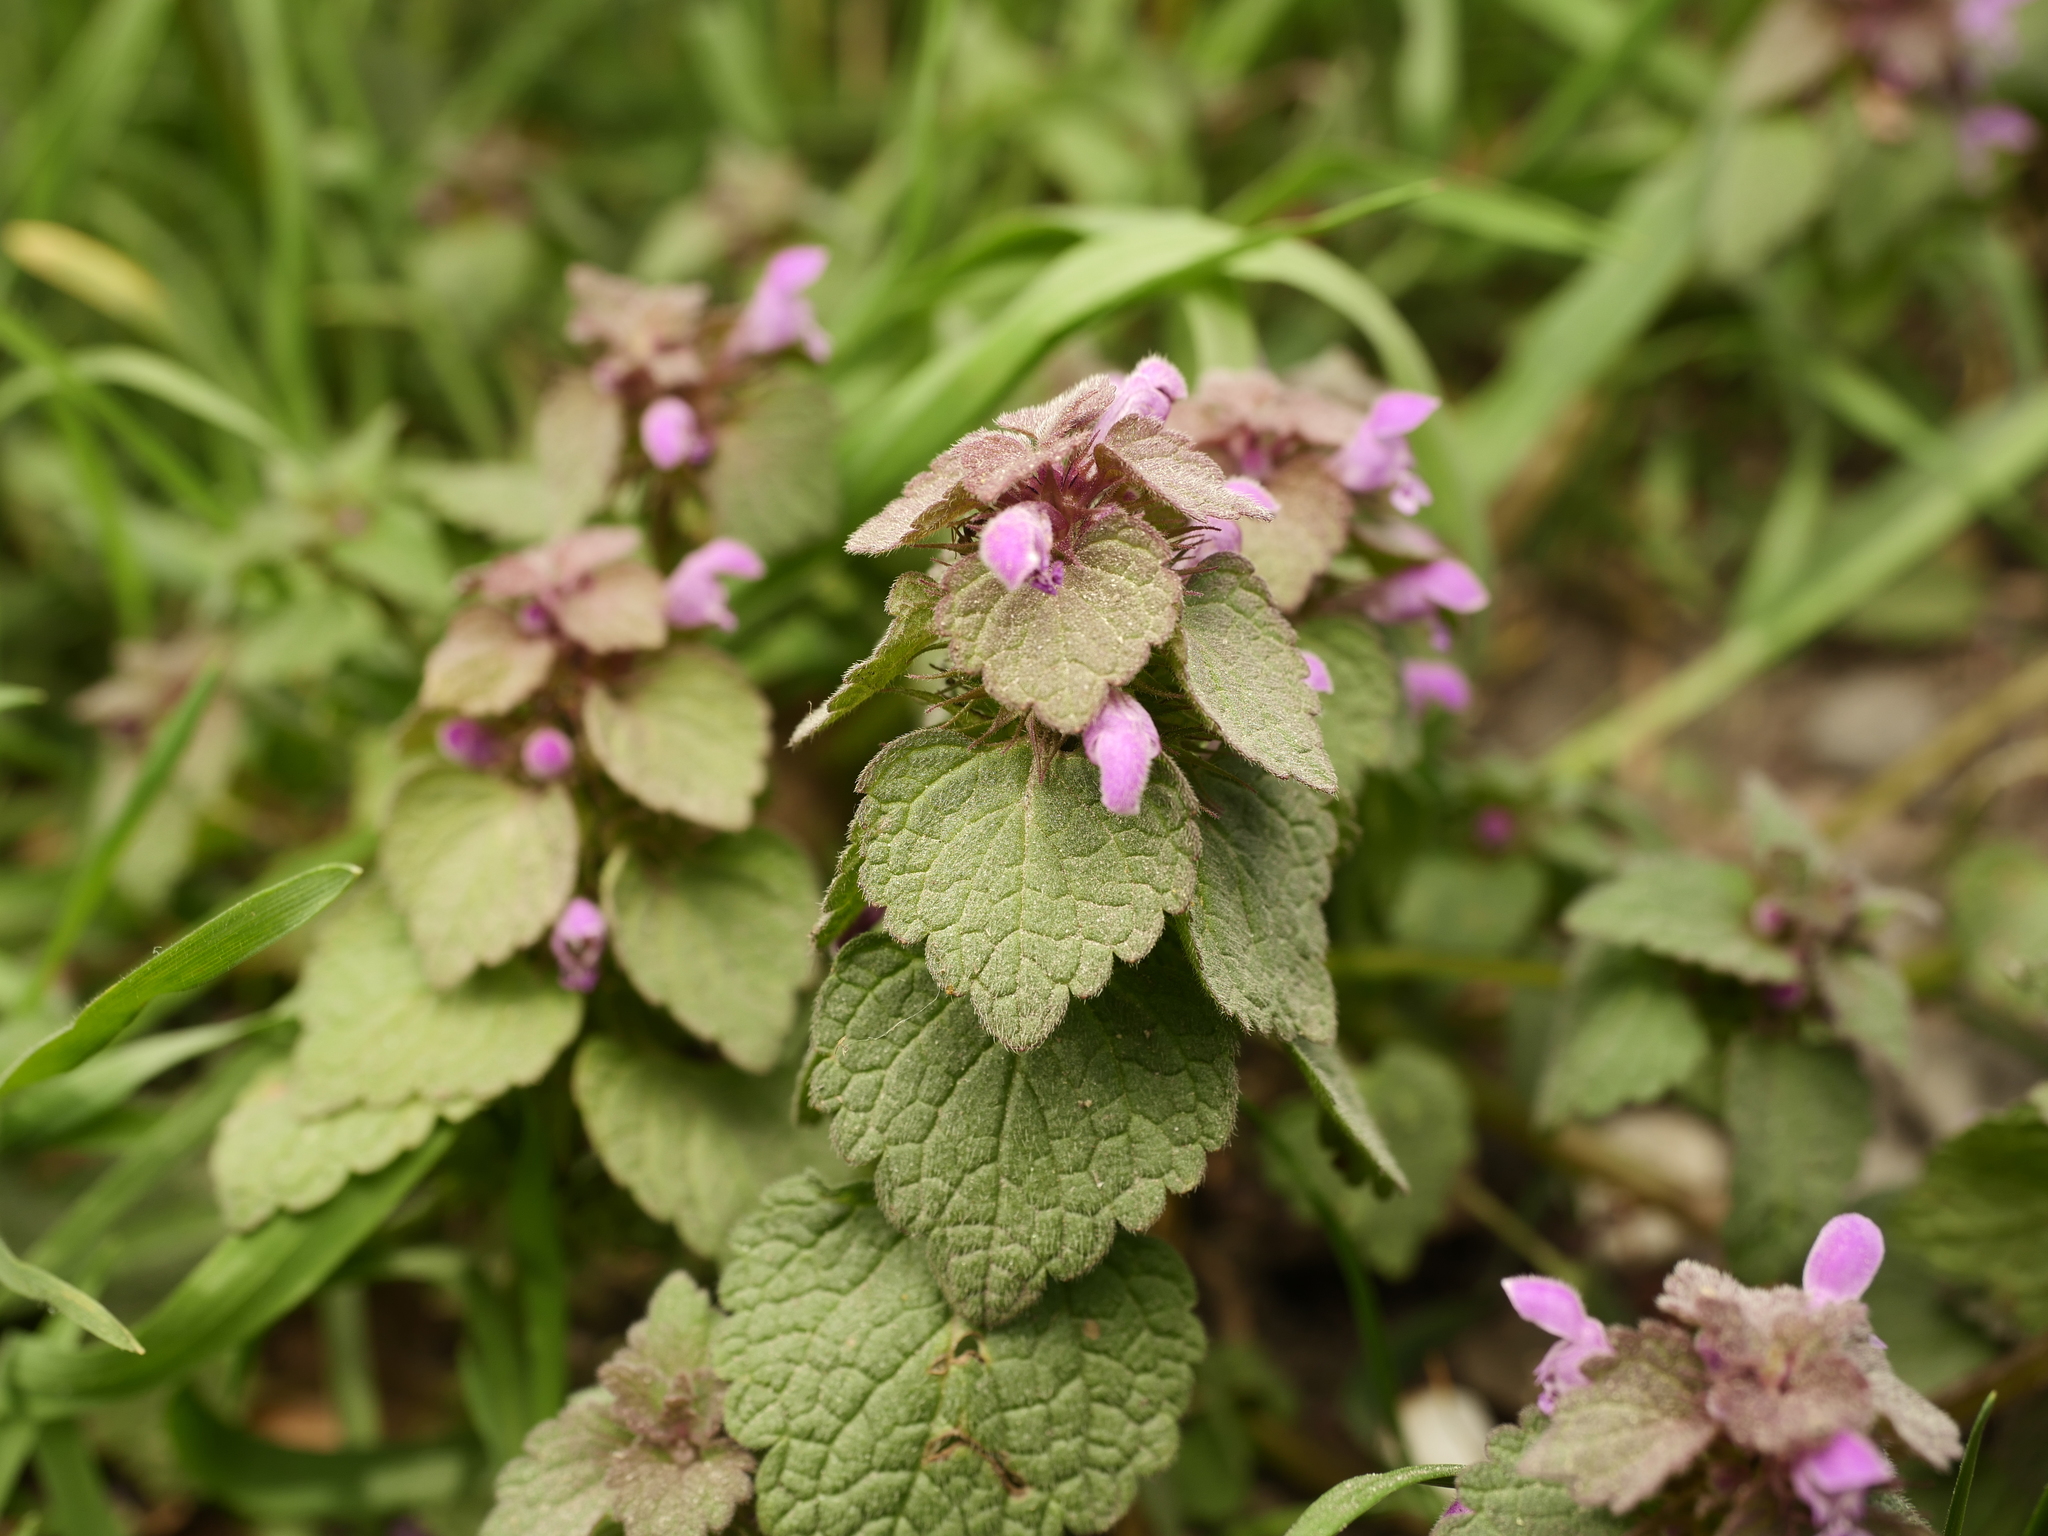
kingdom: Plantae
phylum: Tracheophyta
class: Magnoliopsida
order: Lamiales
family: Lamiaceae
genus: Lamium
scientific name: Lamium purpureum
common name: Red dead-nettle
